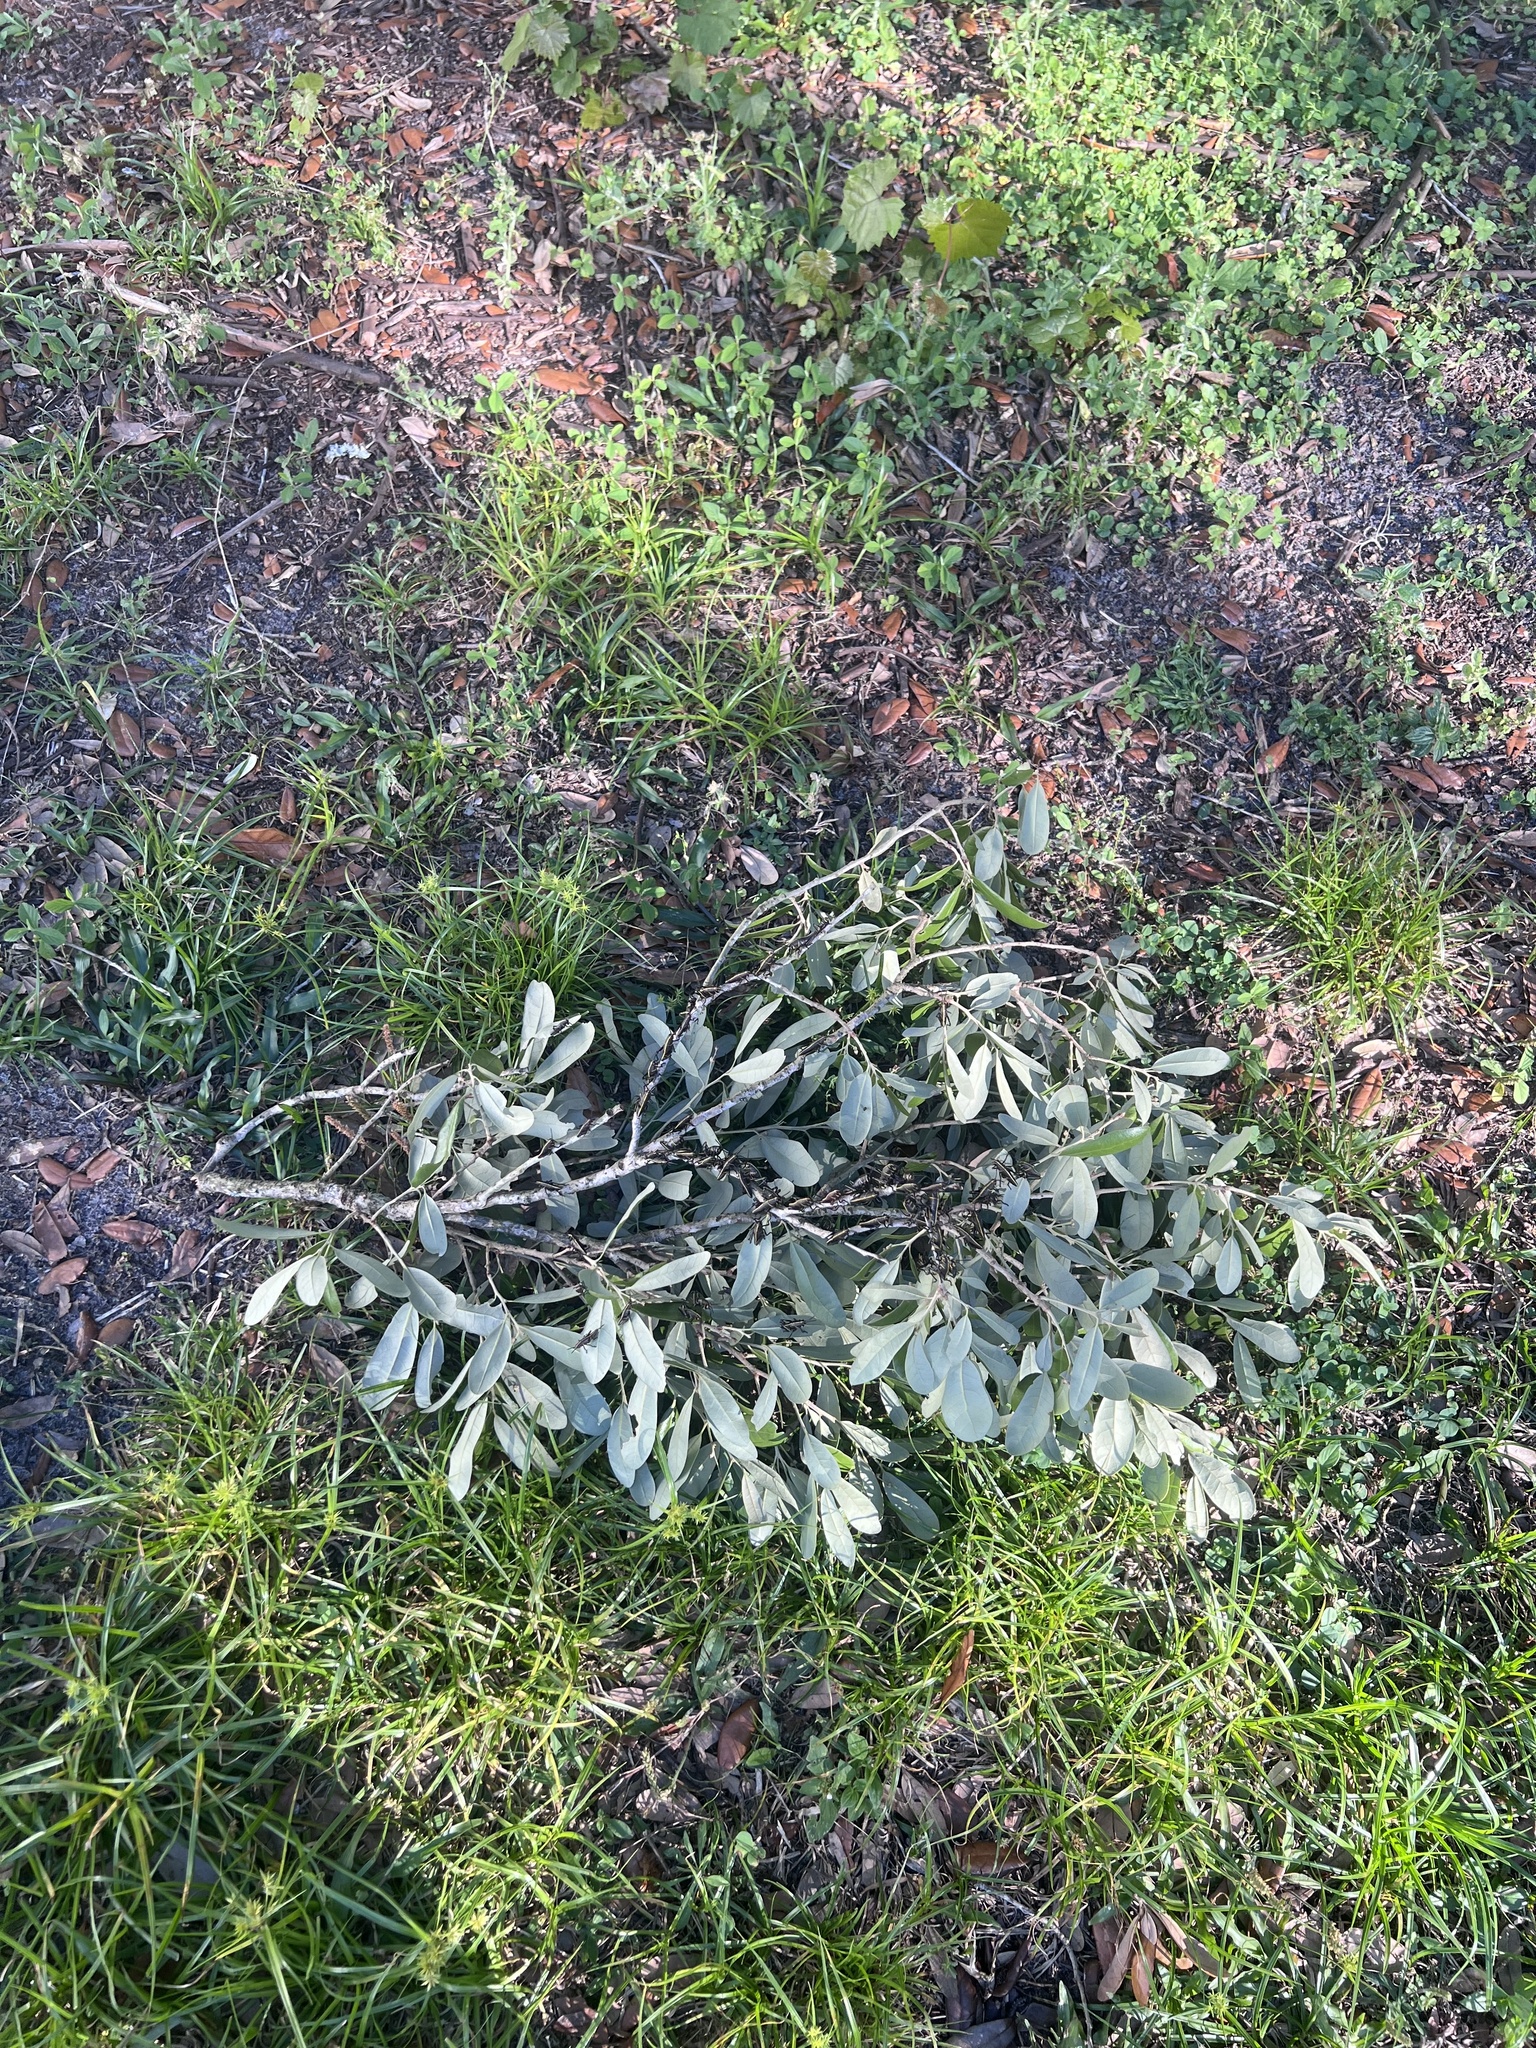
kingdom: Plantae
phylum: Tracheophyta
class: Magnoliopsida
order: Magnoliales
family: Annonaceae
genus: Asimina
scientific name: Asimina reticulata
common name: Flag pawpaw
